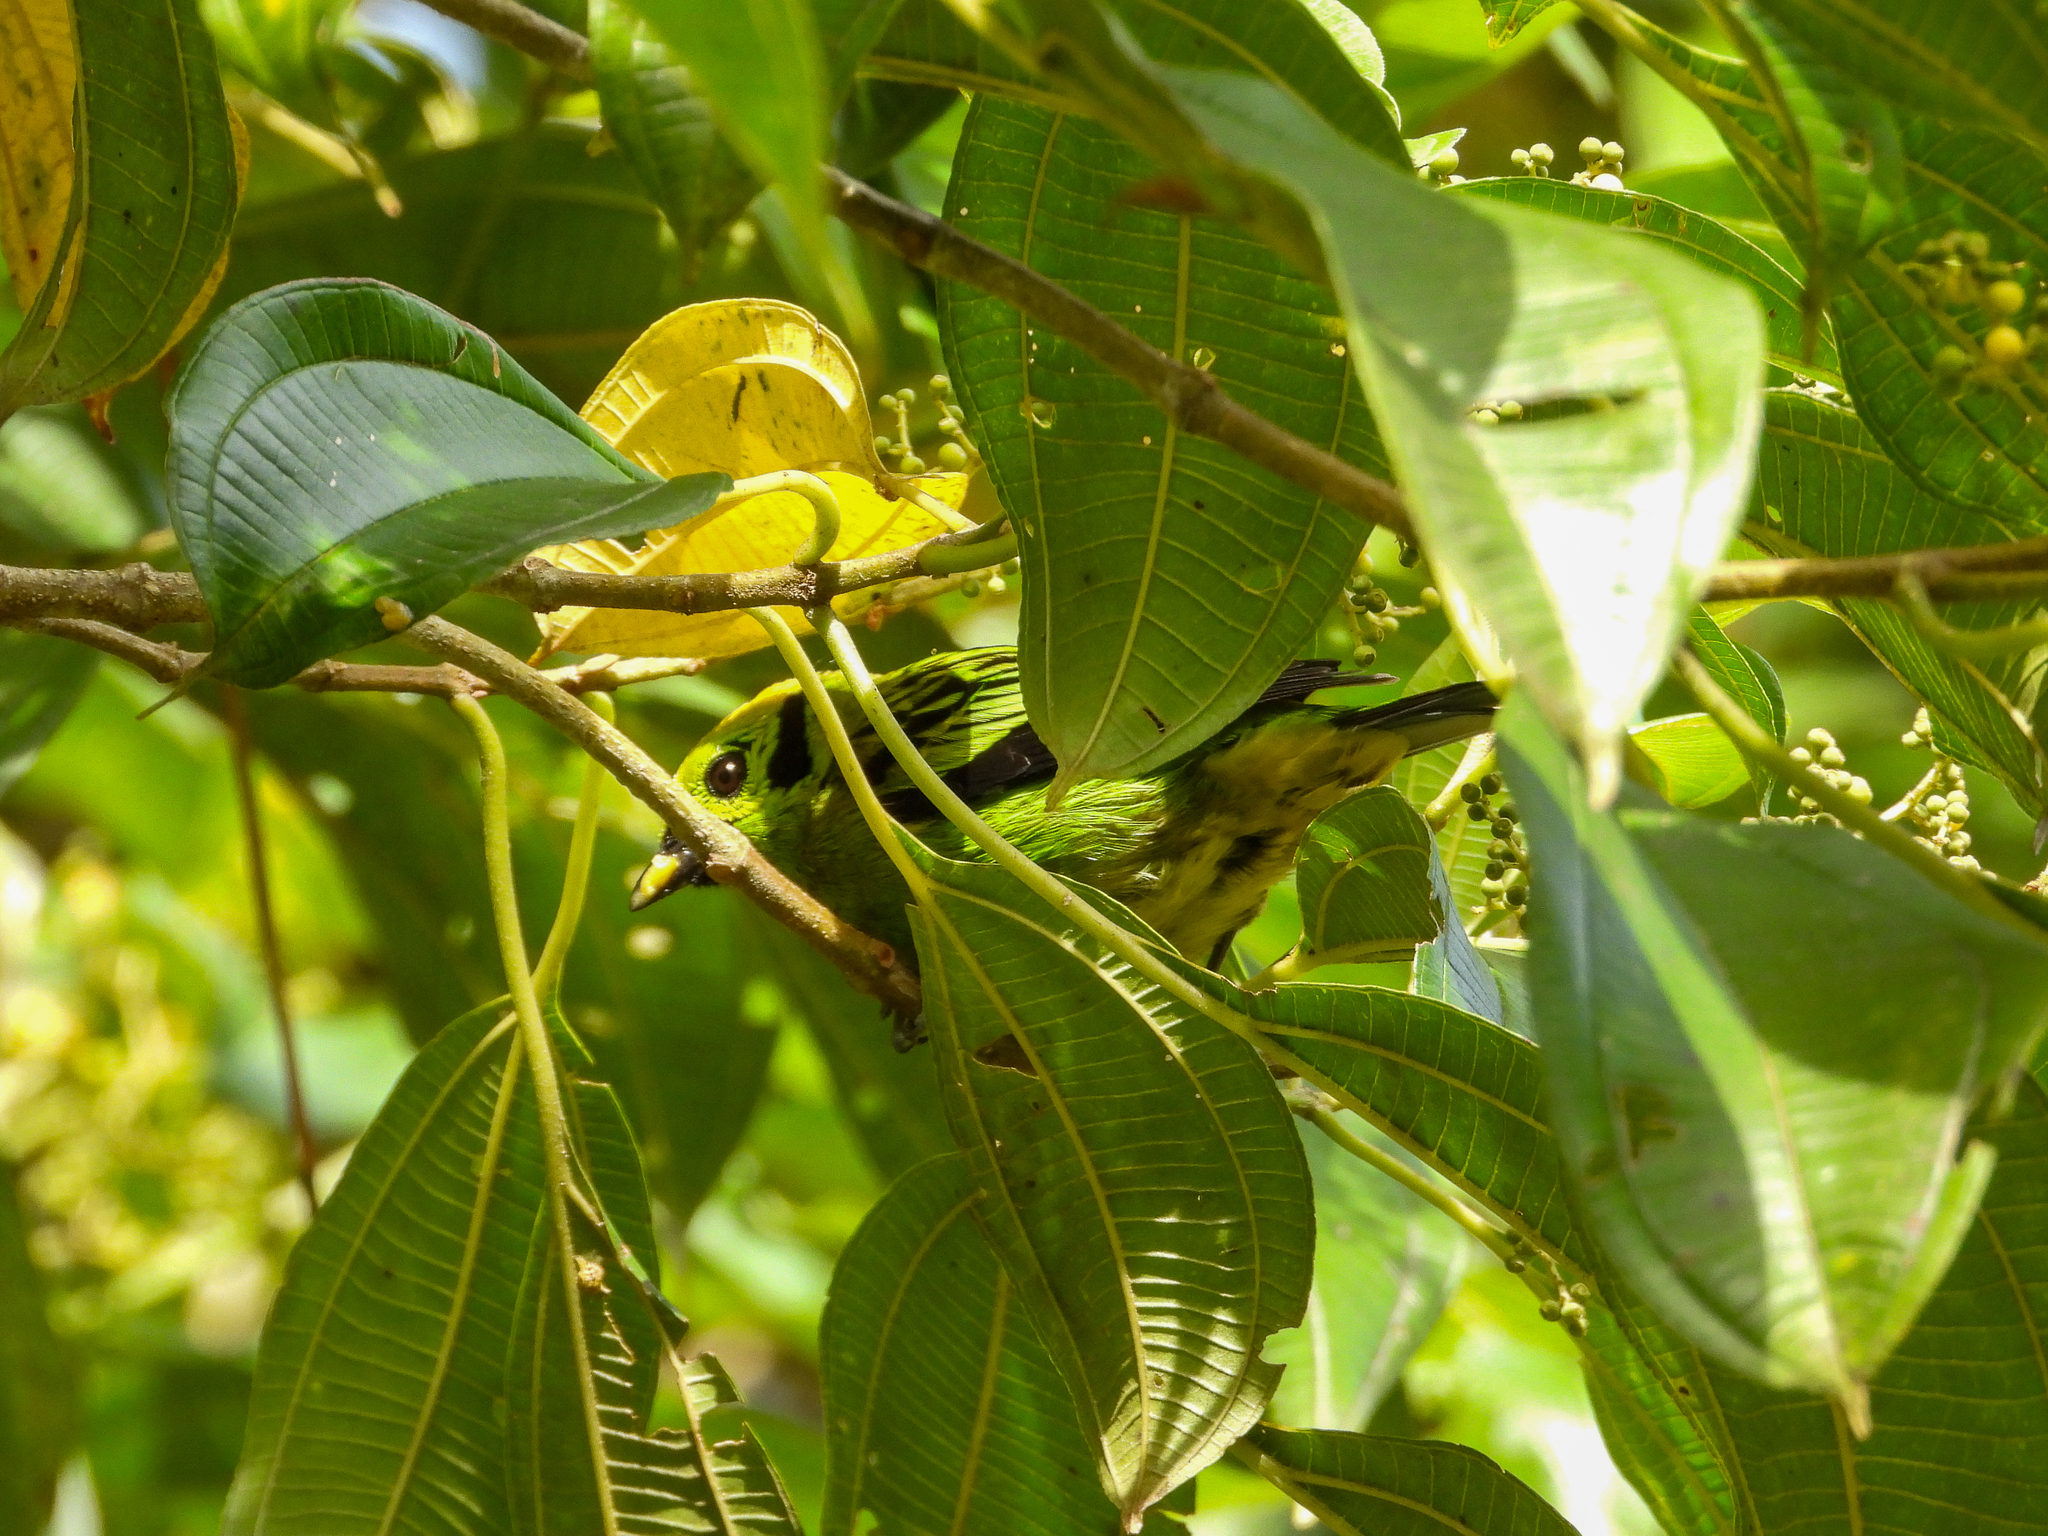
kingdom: Animalia
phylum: Chordata
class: Aves
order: Passeriformes
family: Thraupidae
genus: Tangara
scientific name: Tangara florida
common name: Emerald tanager
